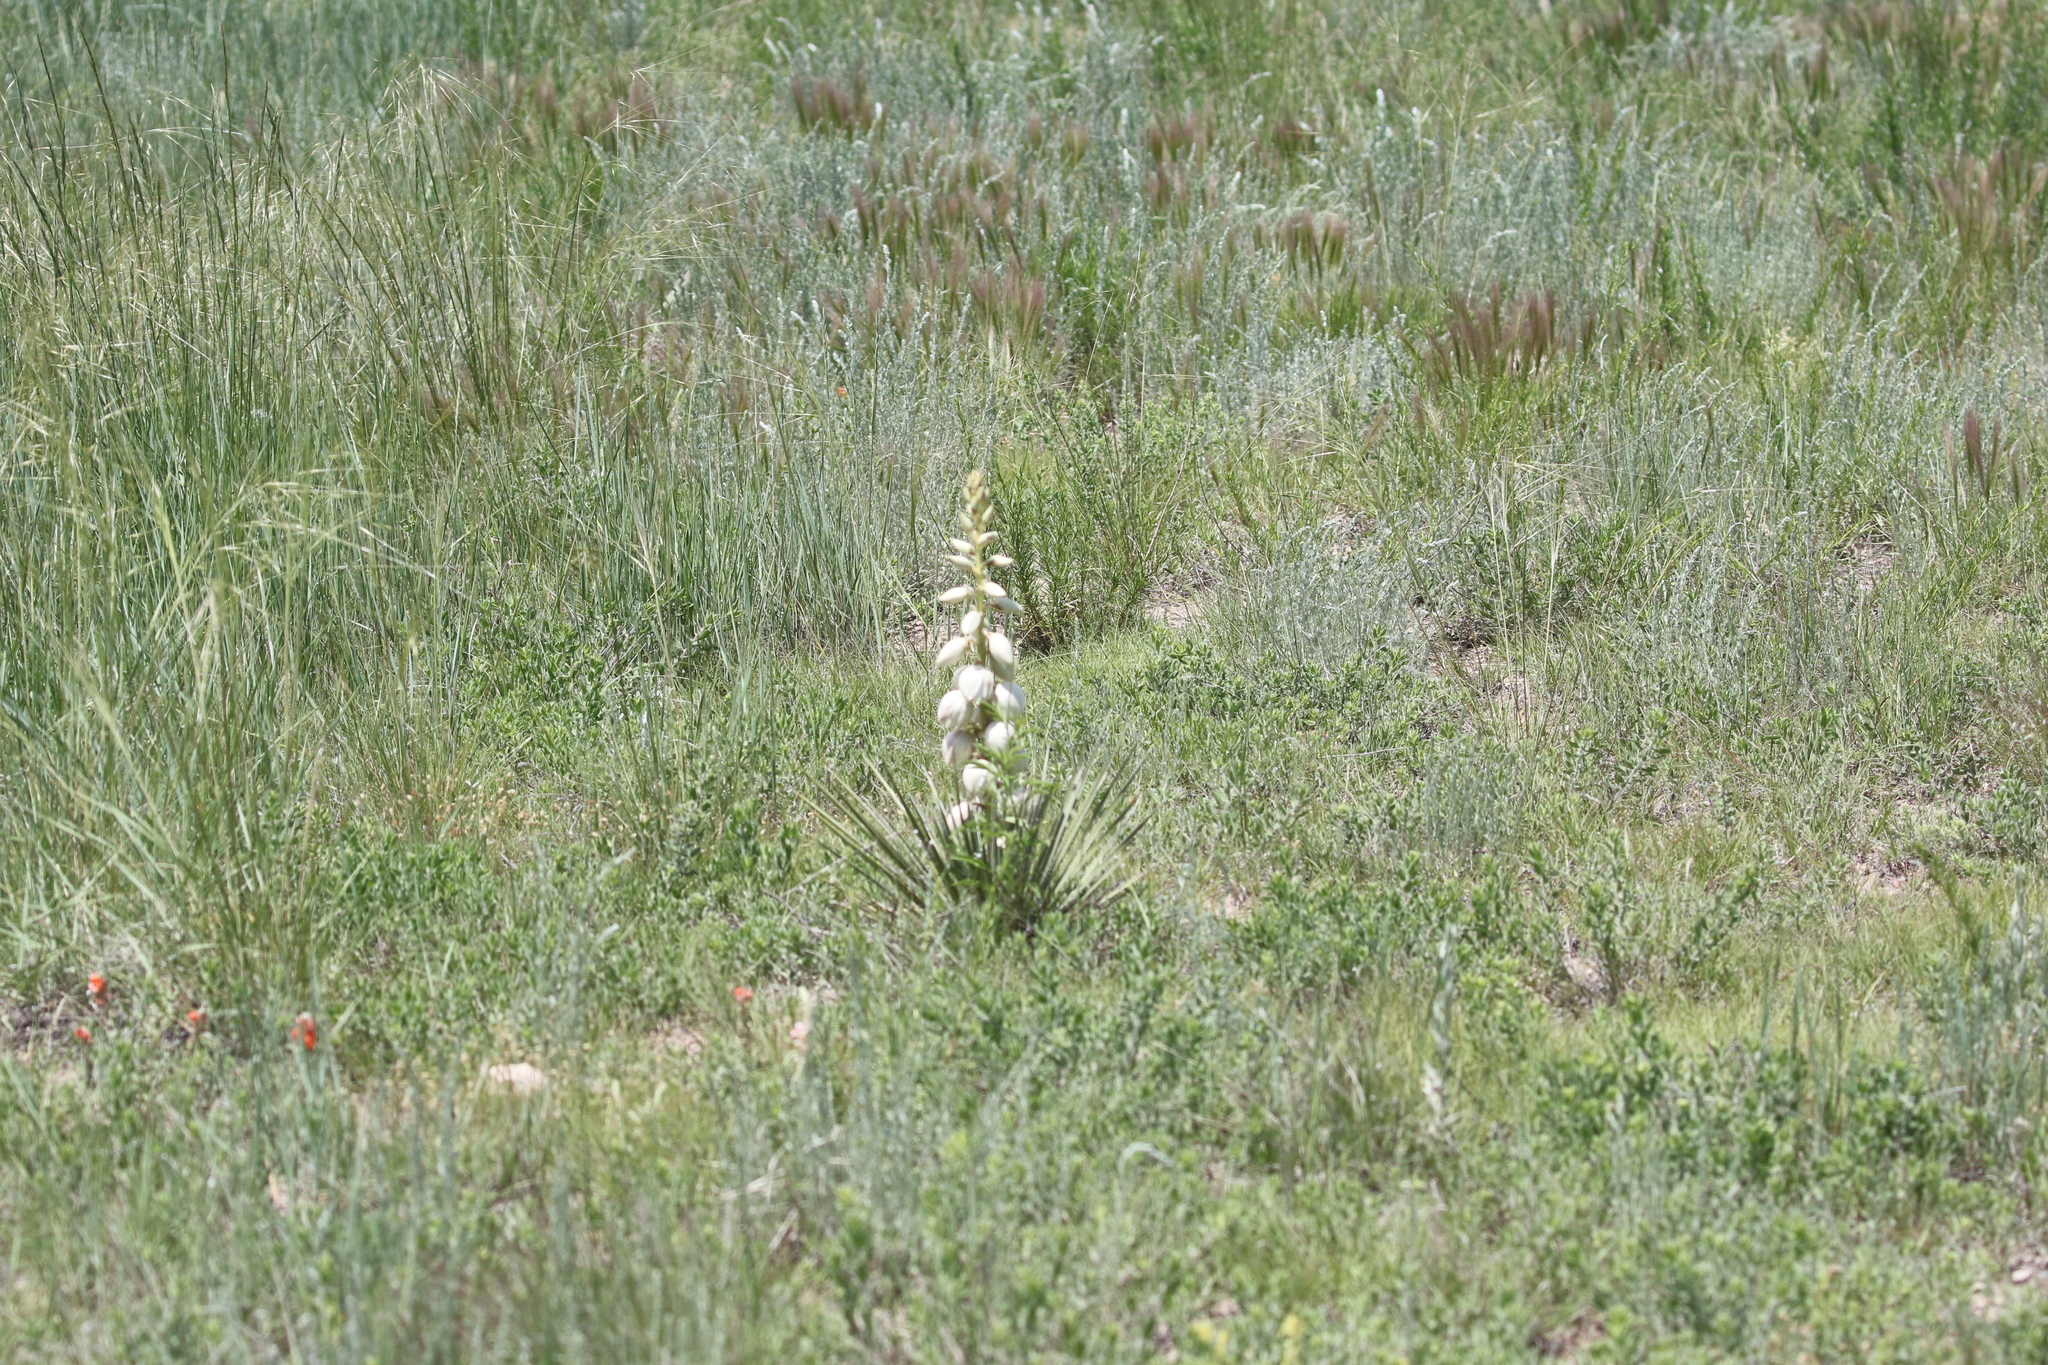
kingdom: Plantae
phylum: Tracheophyta
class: Liliopsida
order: Asparagales
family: Asparagaceae
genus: Yucca
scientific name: Yucca glauca
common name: Great plains yucca
